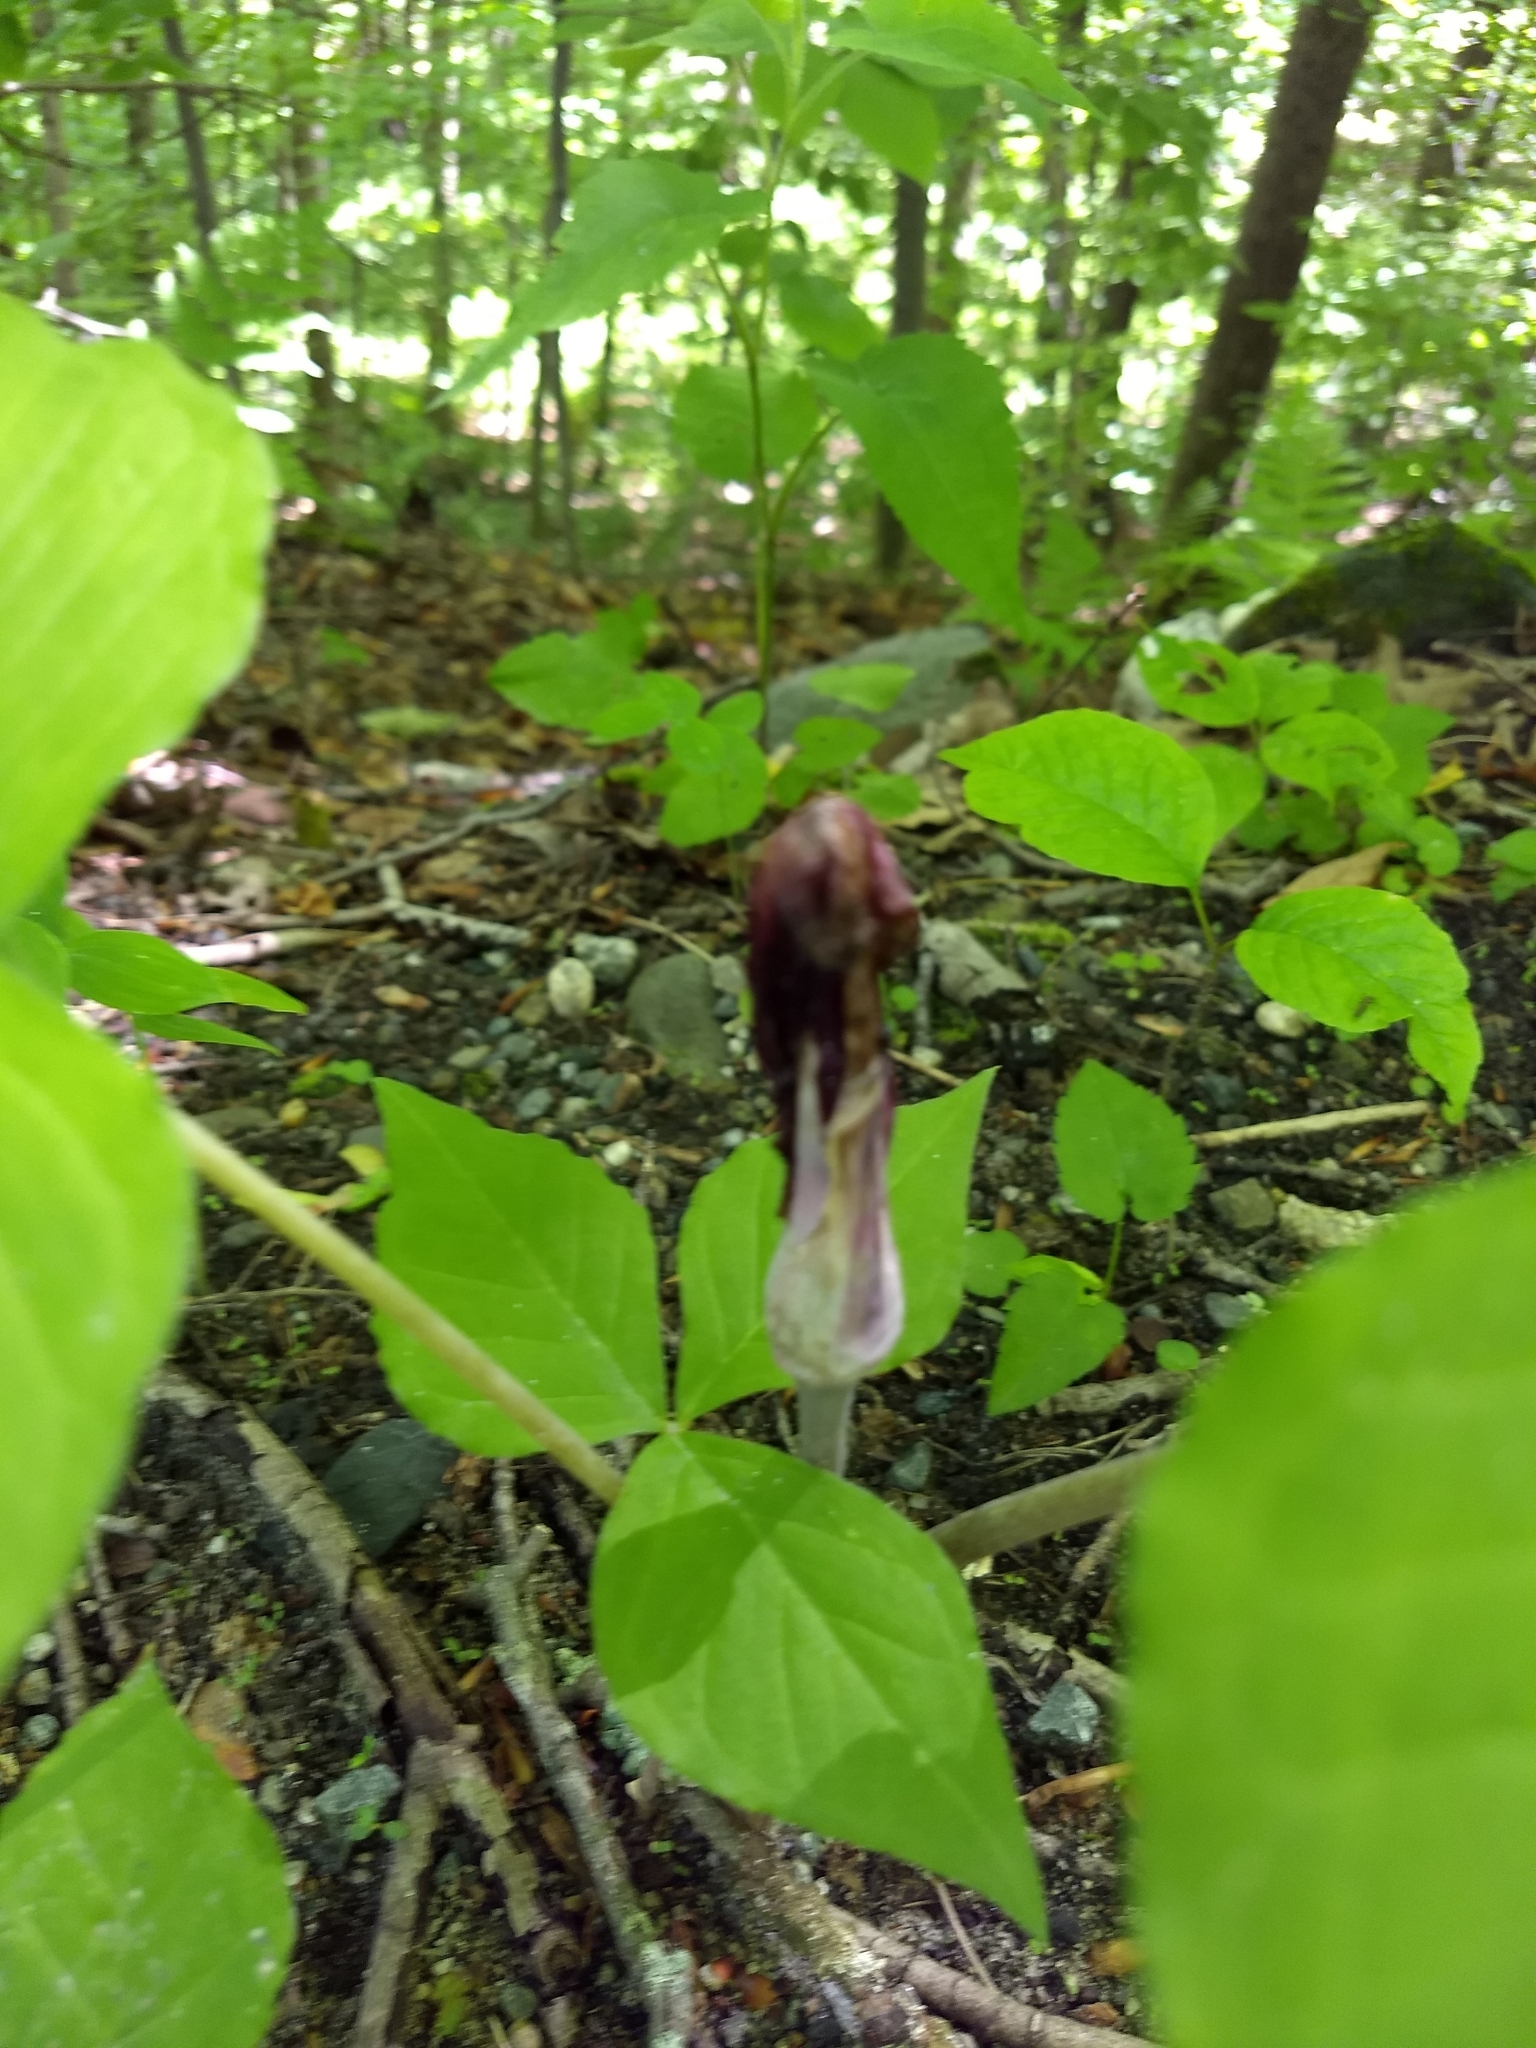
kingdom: Plantae
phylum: Tracheophyta
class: Liliopsida
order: Alismatales
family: Araceae
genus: Arisaema
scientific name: Arisaema triphyllum
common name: Jack-in-the-pulpit
